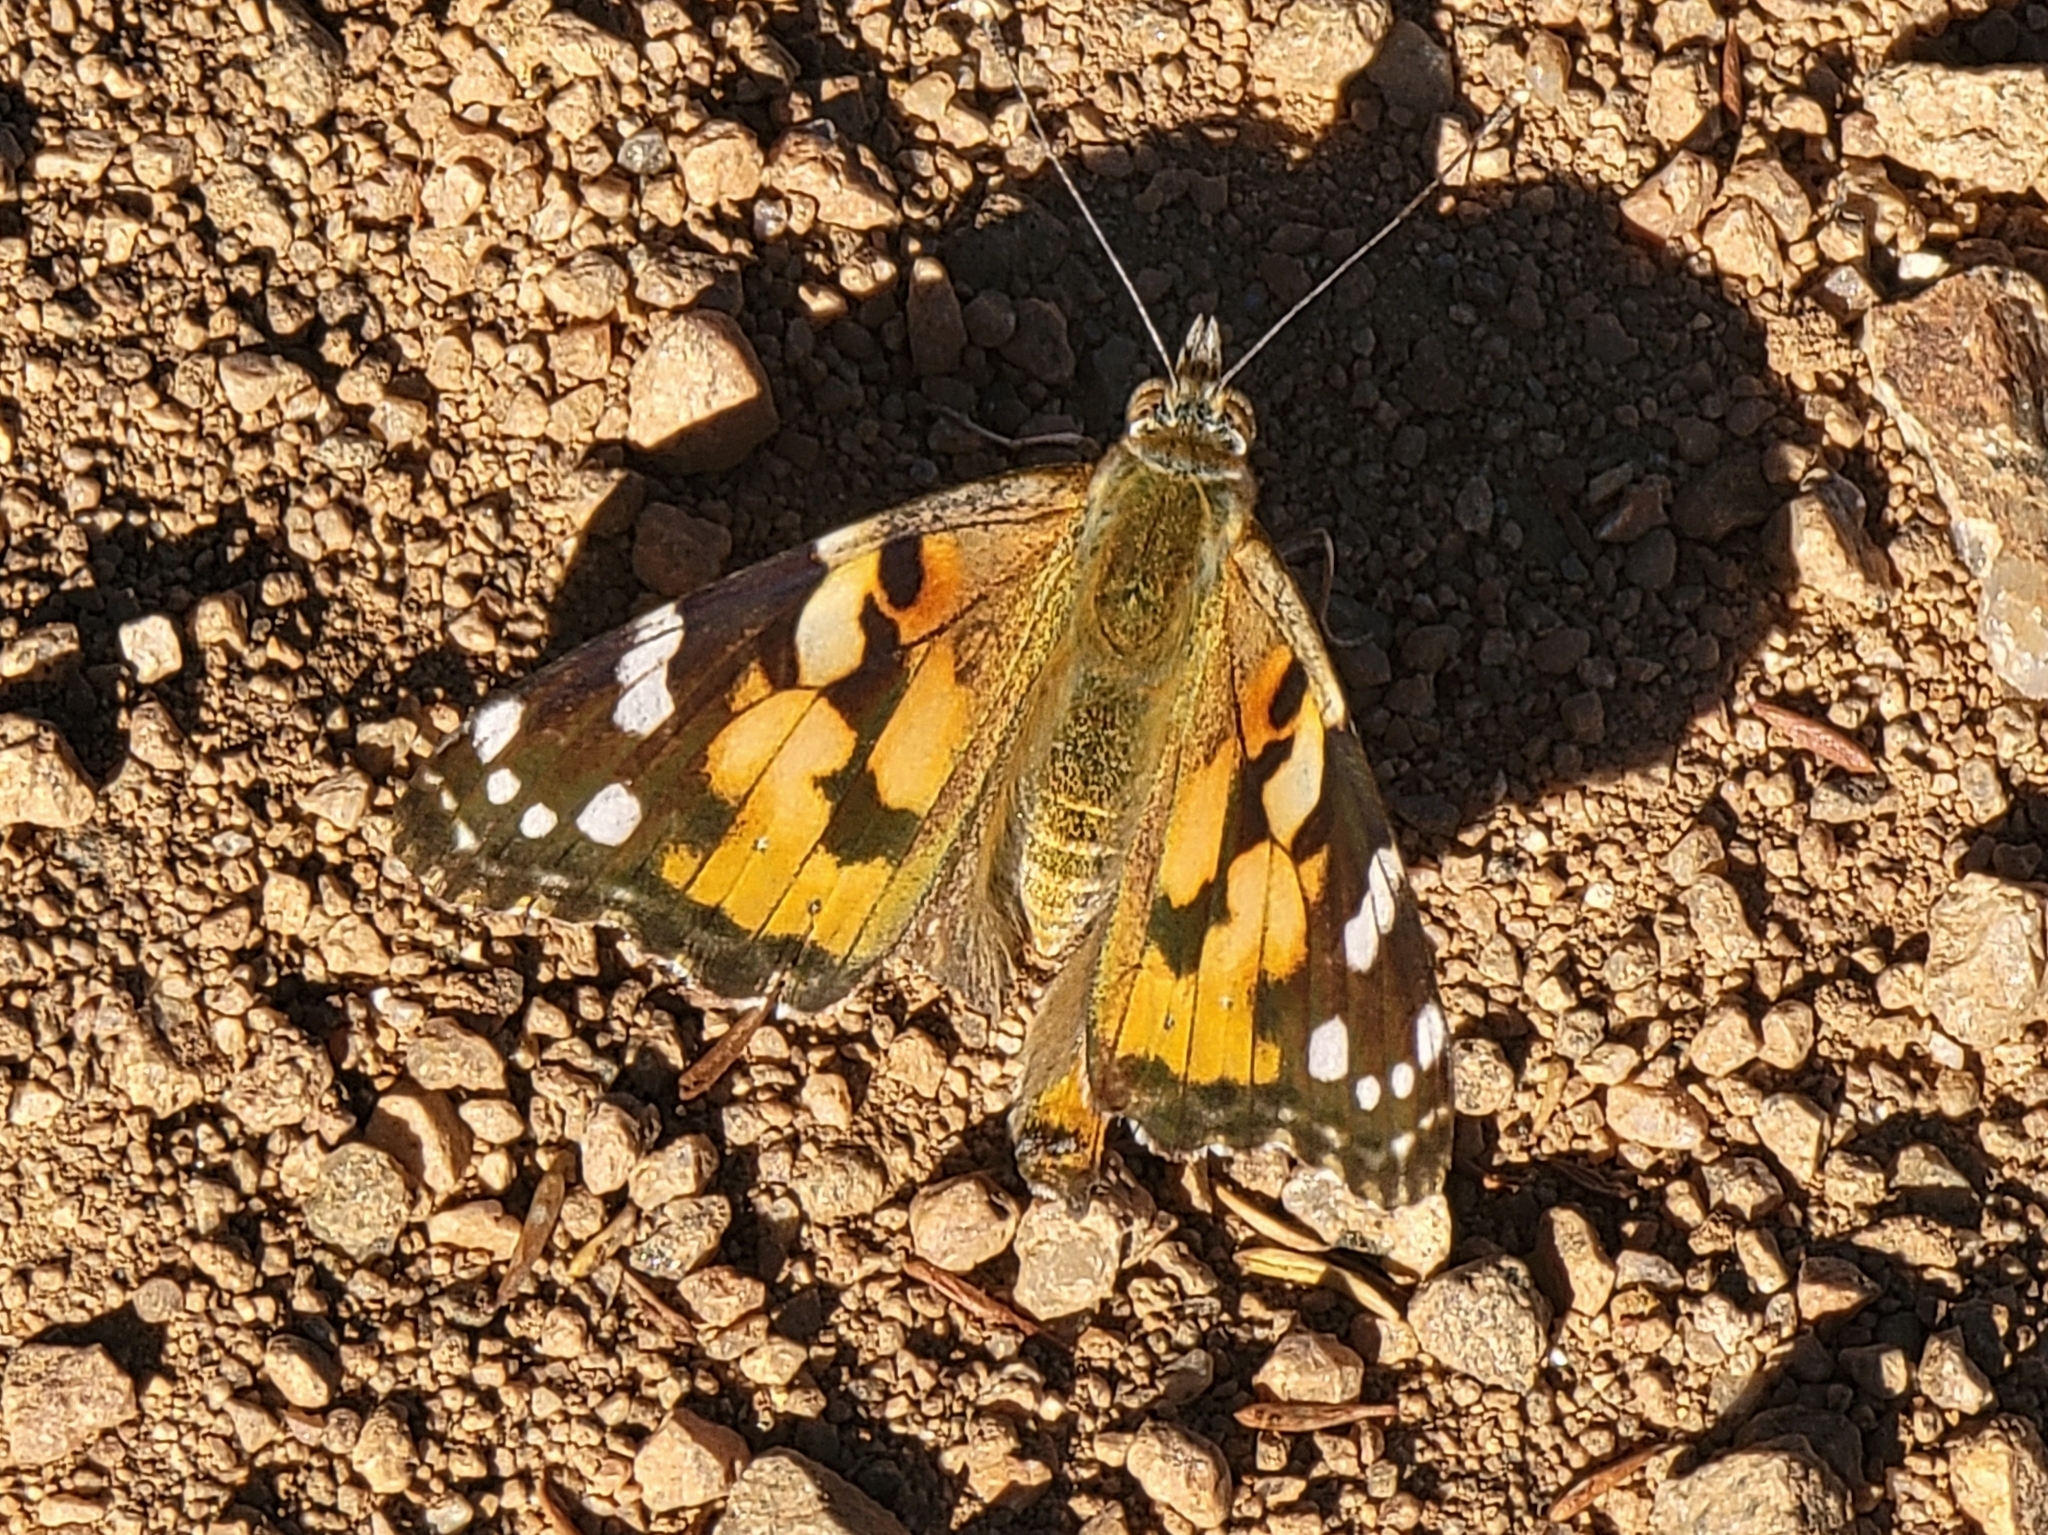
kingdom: Animalia
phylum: Arthropoda
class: Insecta
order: Lepidoptera
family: Nymphalidae
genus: Vanessa
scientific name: Vanessa cardui
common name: Painted lady
